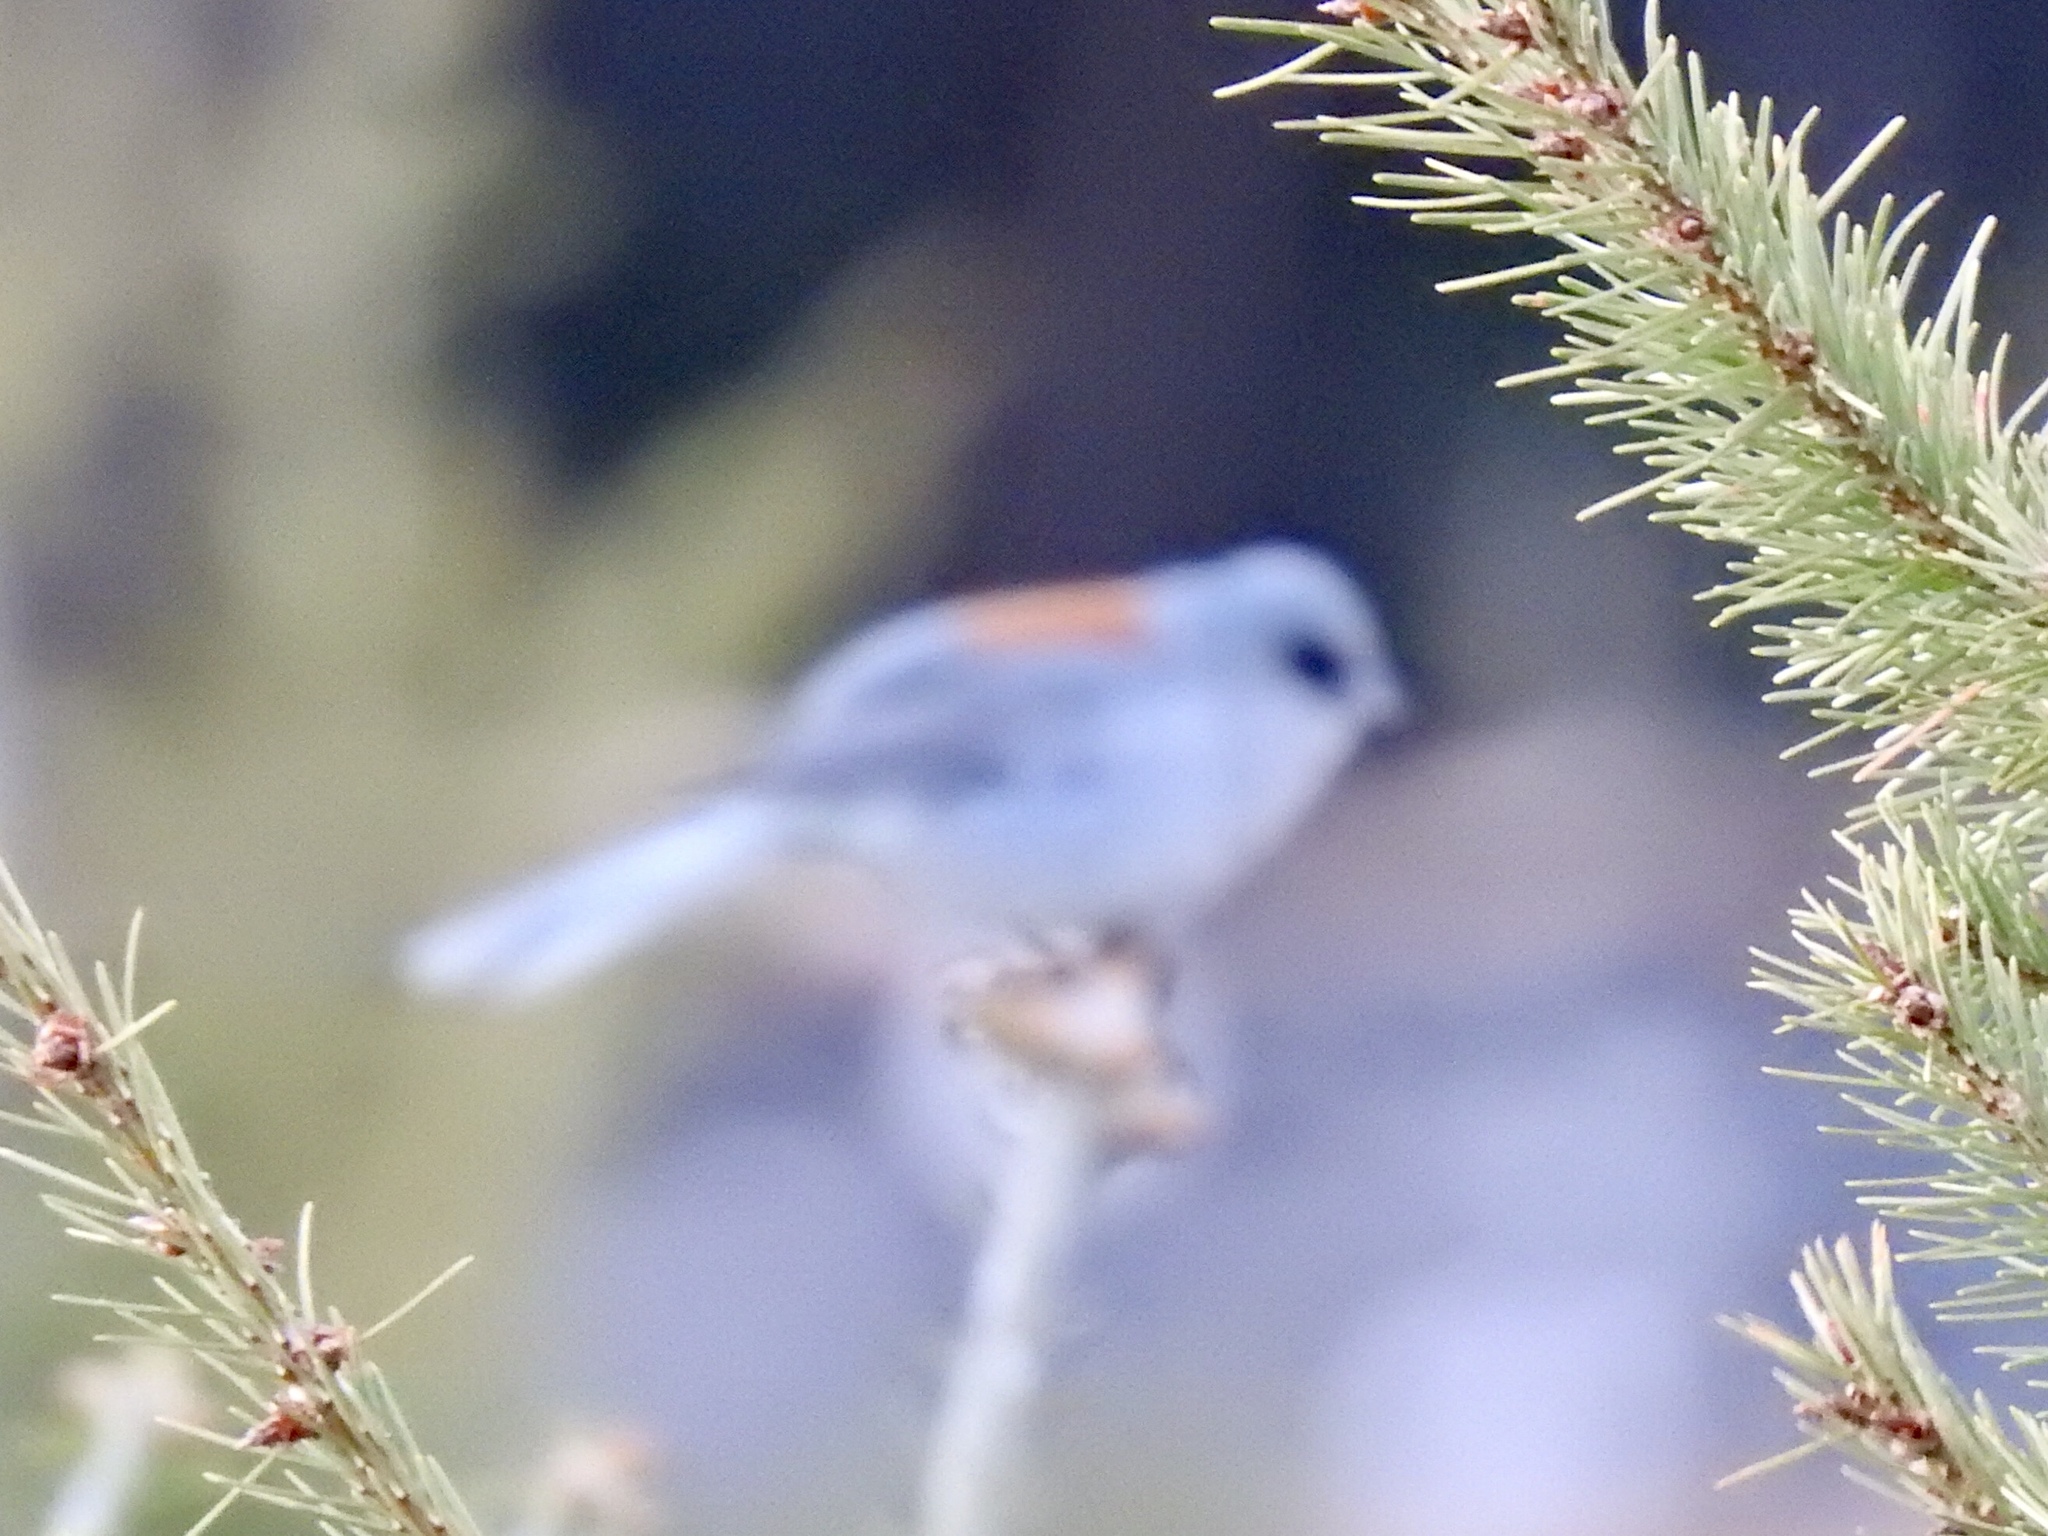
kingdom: Animalia
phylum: Chordata
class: Aves
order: Passeriformes
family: Passerellidae
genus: Junco
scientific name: Junco hyemalis
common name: Dark-eyed junco
